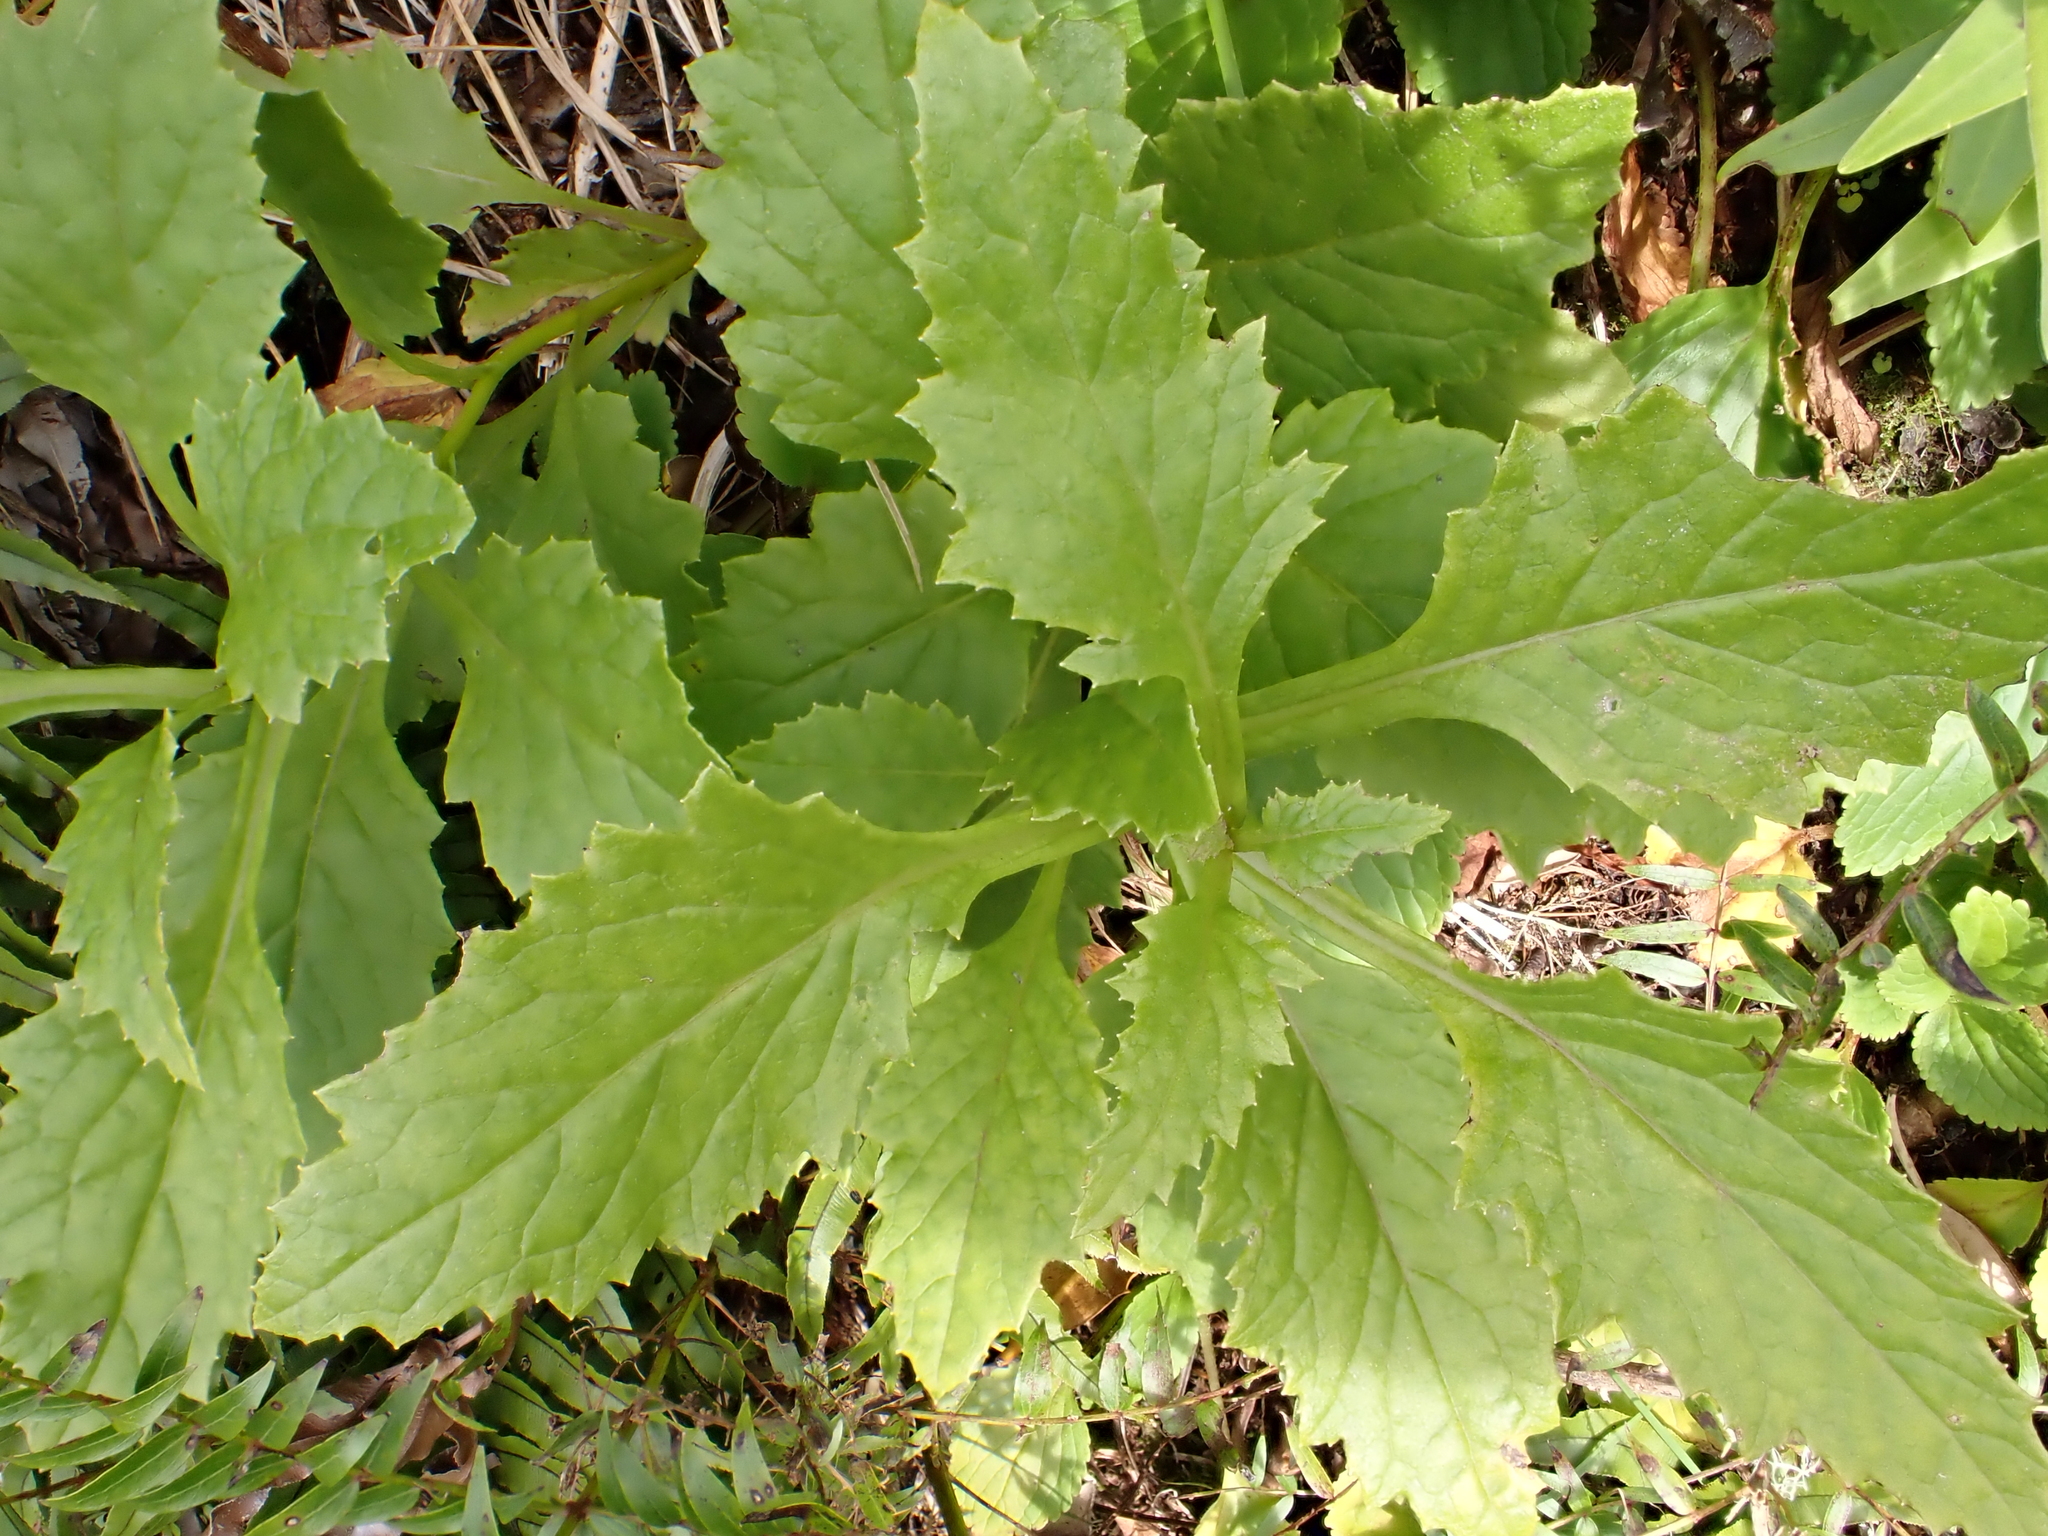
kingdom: Plantae
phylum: Tracheophyta
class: Magnoliopsida
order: Asterales
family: Asteraceae
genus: Senecio
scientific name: Senecio rufiglandulosus
